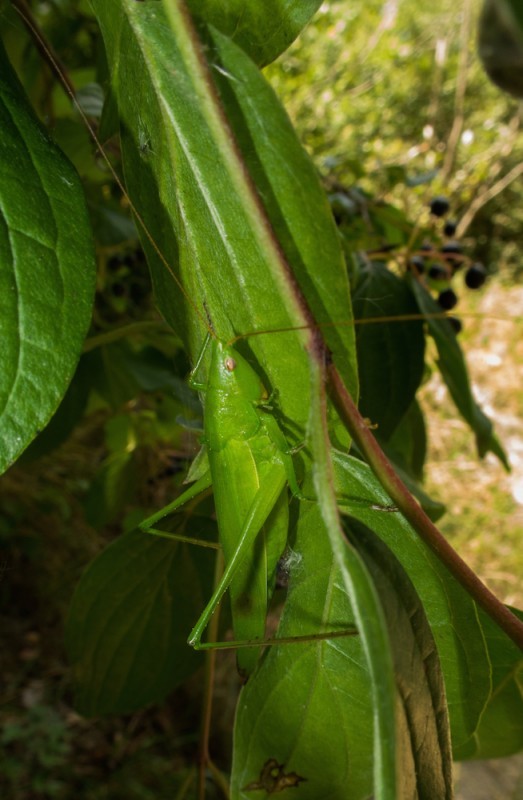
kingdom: Animalia
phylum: Arthropoda
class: Insecta
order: Orthoptera
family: Tettigoniidae
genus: Ruspolia
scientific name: Ruspolia nitidula
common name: Large conehead
